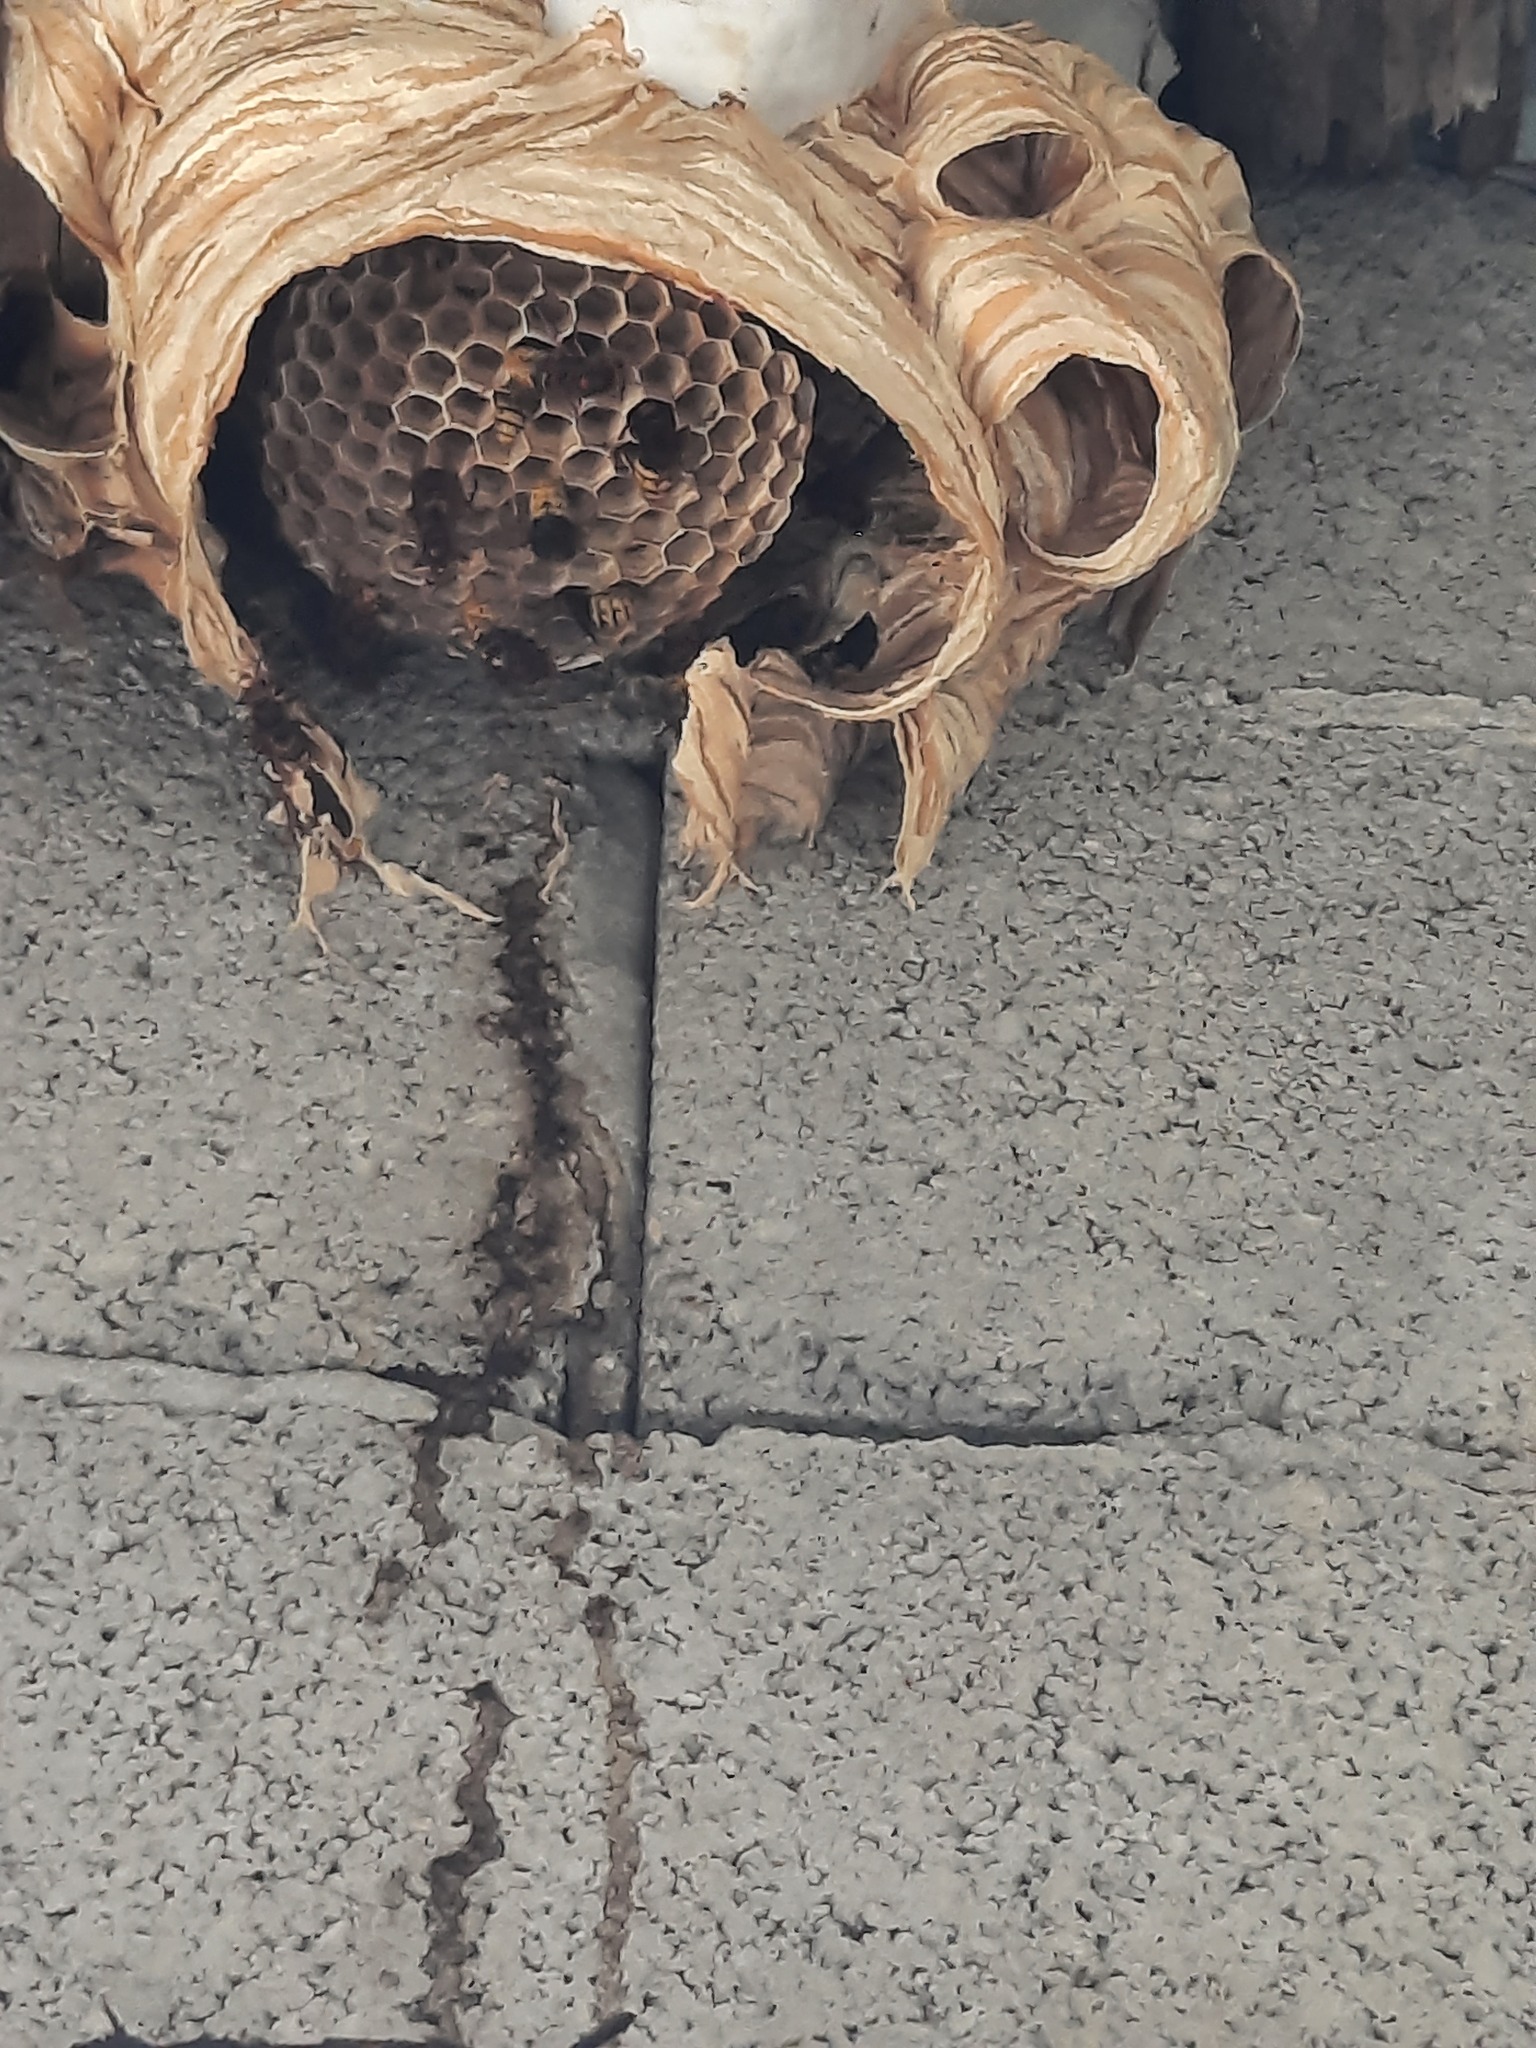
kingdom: Animalia
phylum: Arthropoda
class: Insecta
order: Hymenoptera
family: Vespidae
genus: Vespa
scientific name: Vespa crabro
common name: Hornet
